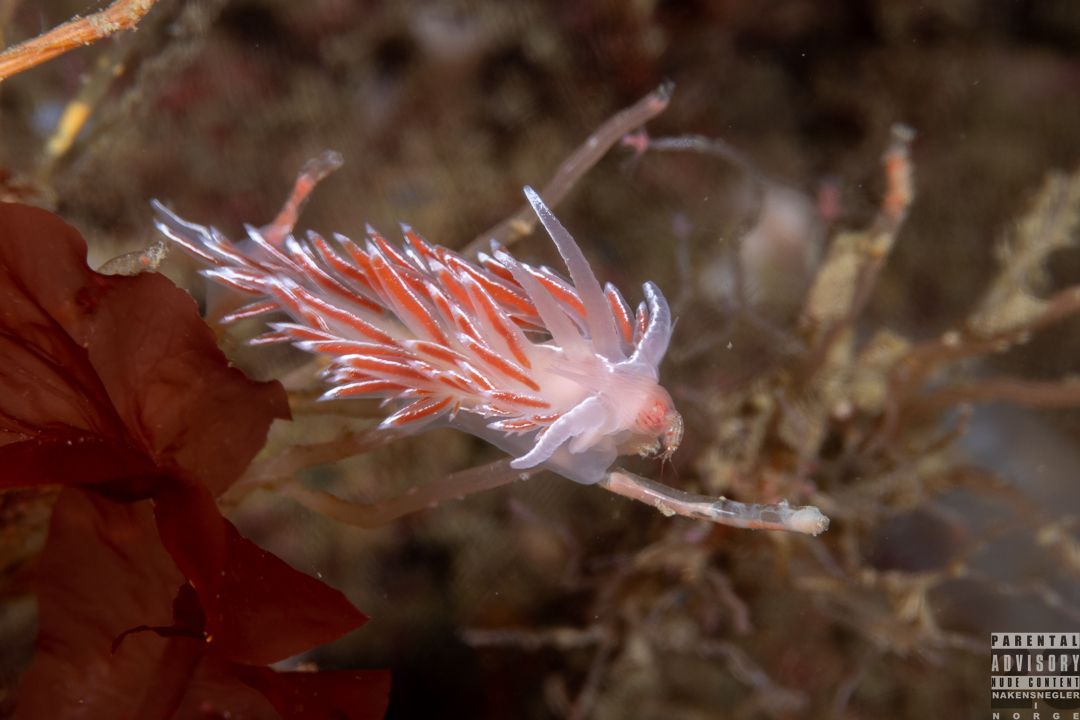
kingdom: Animalia
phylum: Mollusca
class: Gastropoda
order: Nudibranchia
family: Coryphellidae
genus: Coryphella
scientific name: Coryphella lineata
